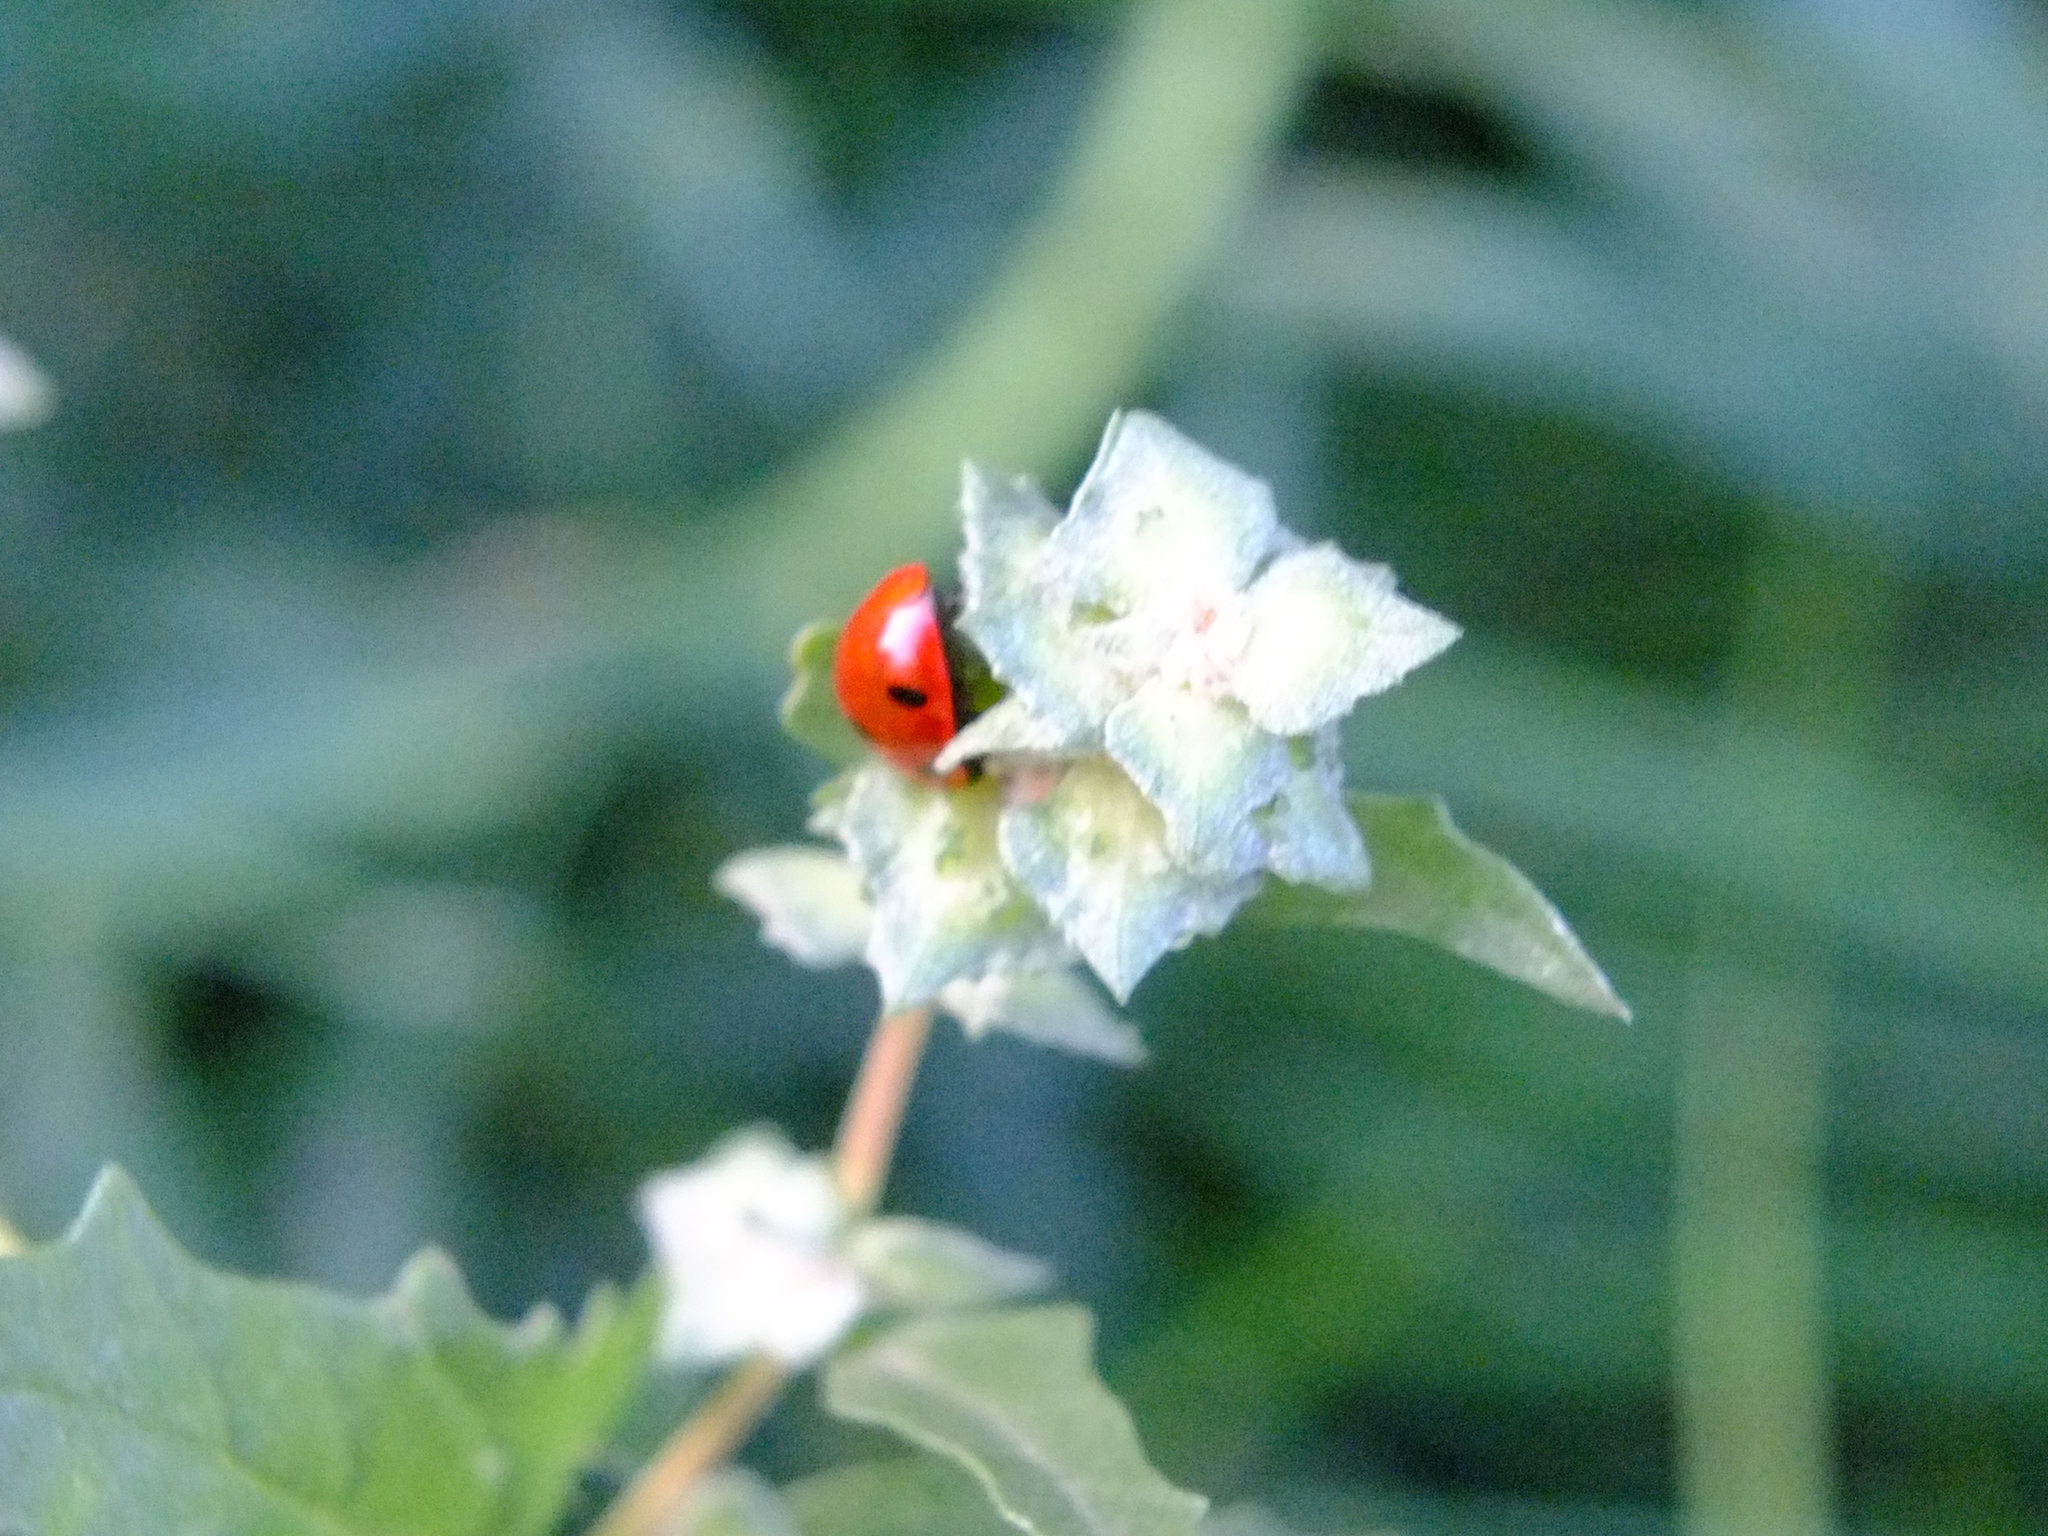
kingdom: Animalia
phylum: Arthropoda
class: Insecta
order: Coleoptera
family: Coccinellidae
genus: Coccinella
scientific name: Coccinella septempunctata
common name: Sevenspotted lady beetle
